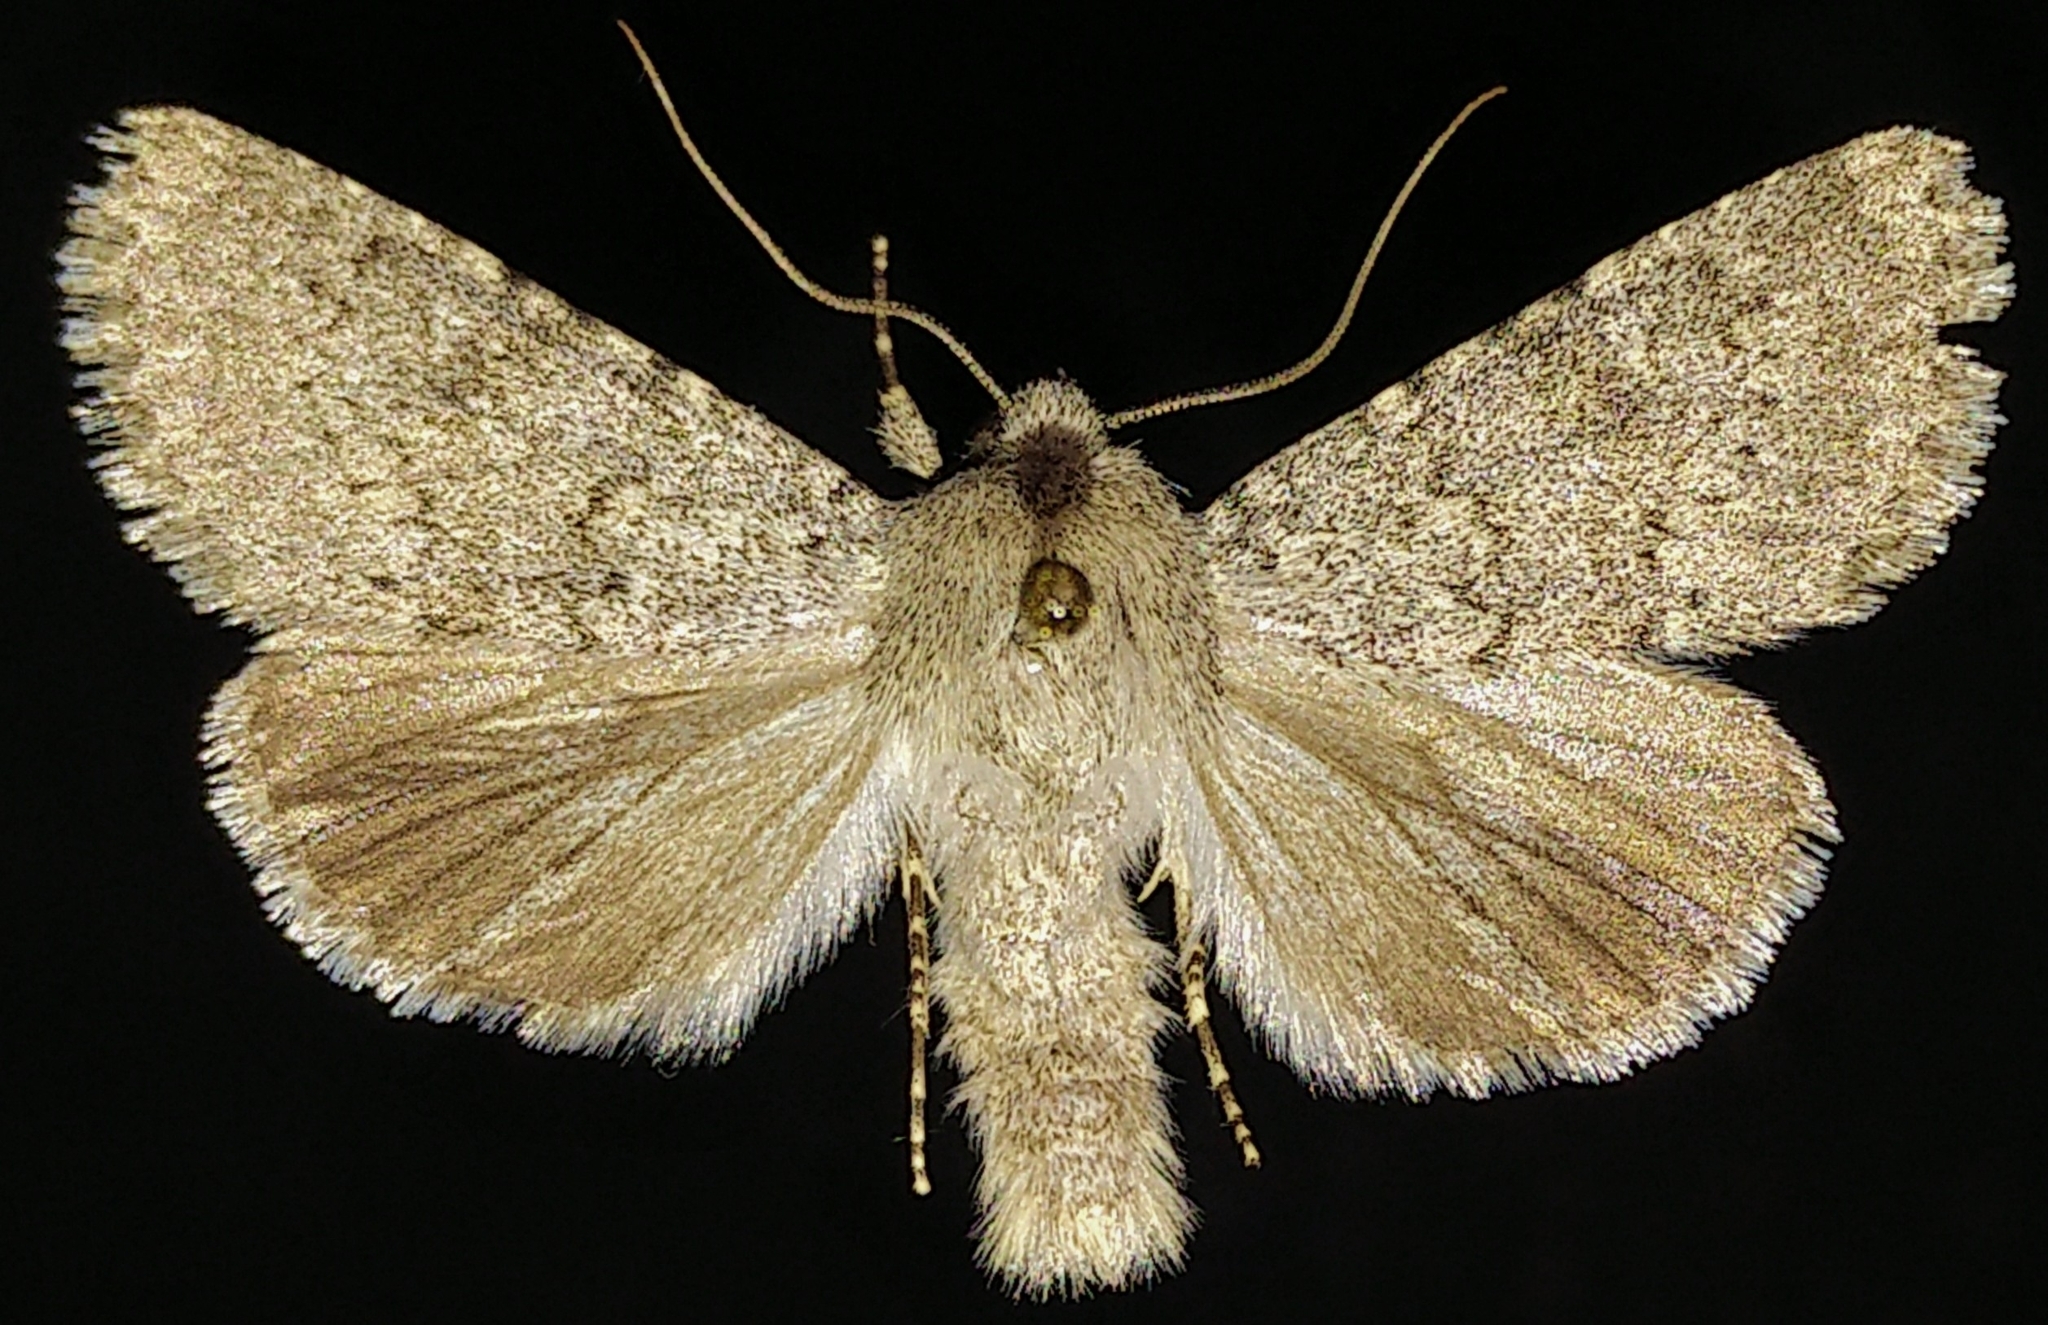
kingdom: Animalia
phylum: Arthropoda
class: Insecta
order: Lepidoptera
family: Noctuidae
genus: Scotogramma
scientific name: Scotogramma submarina
